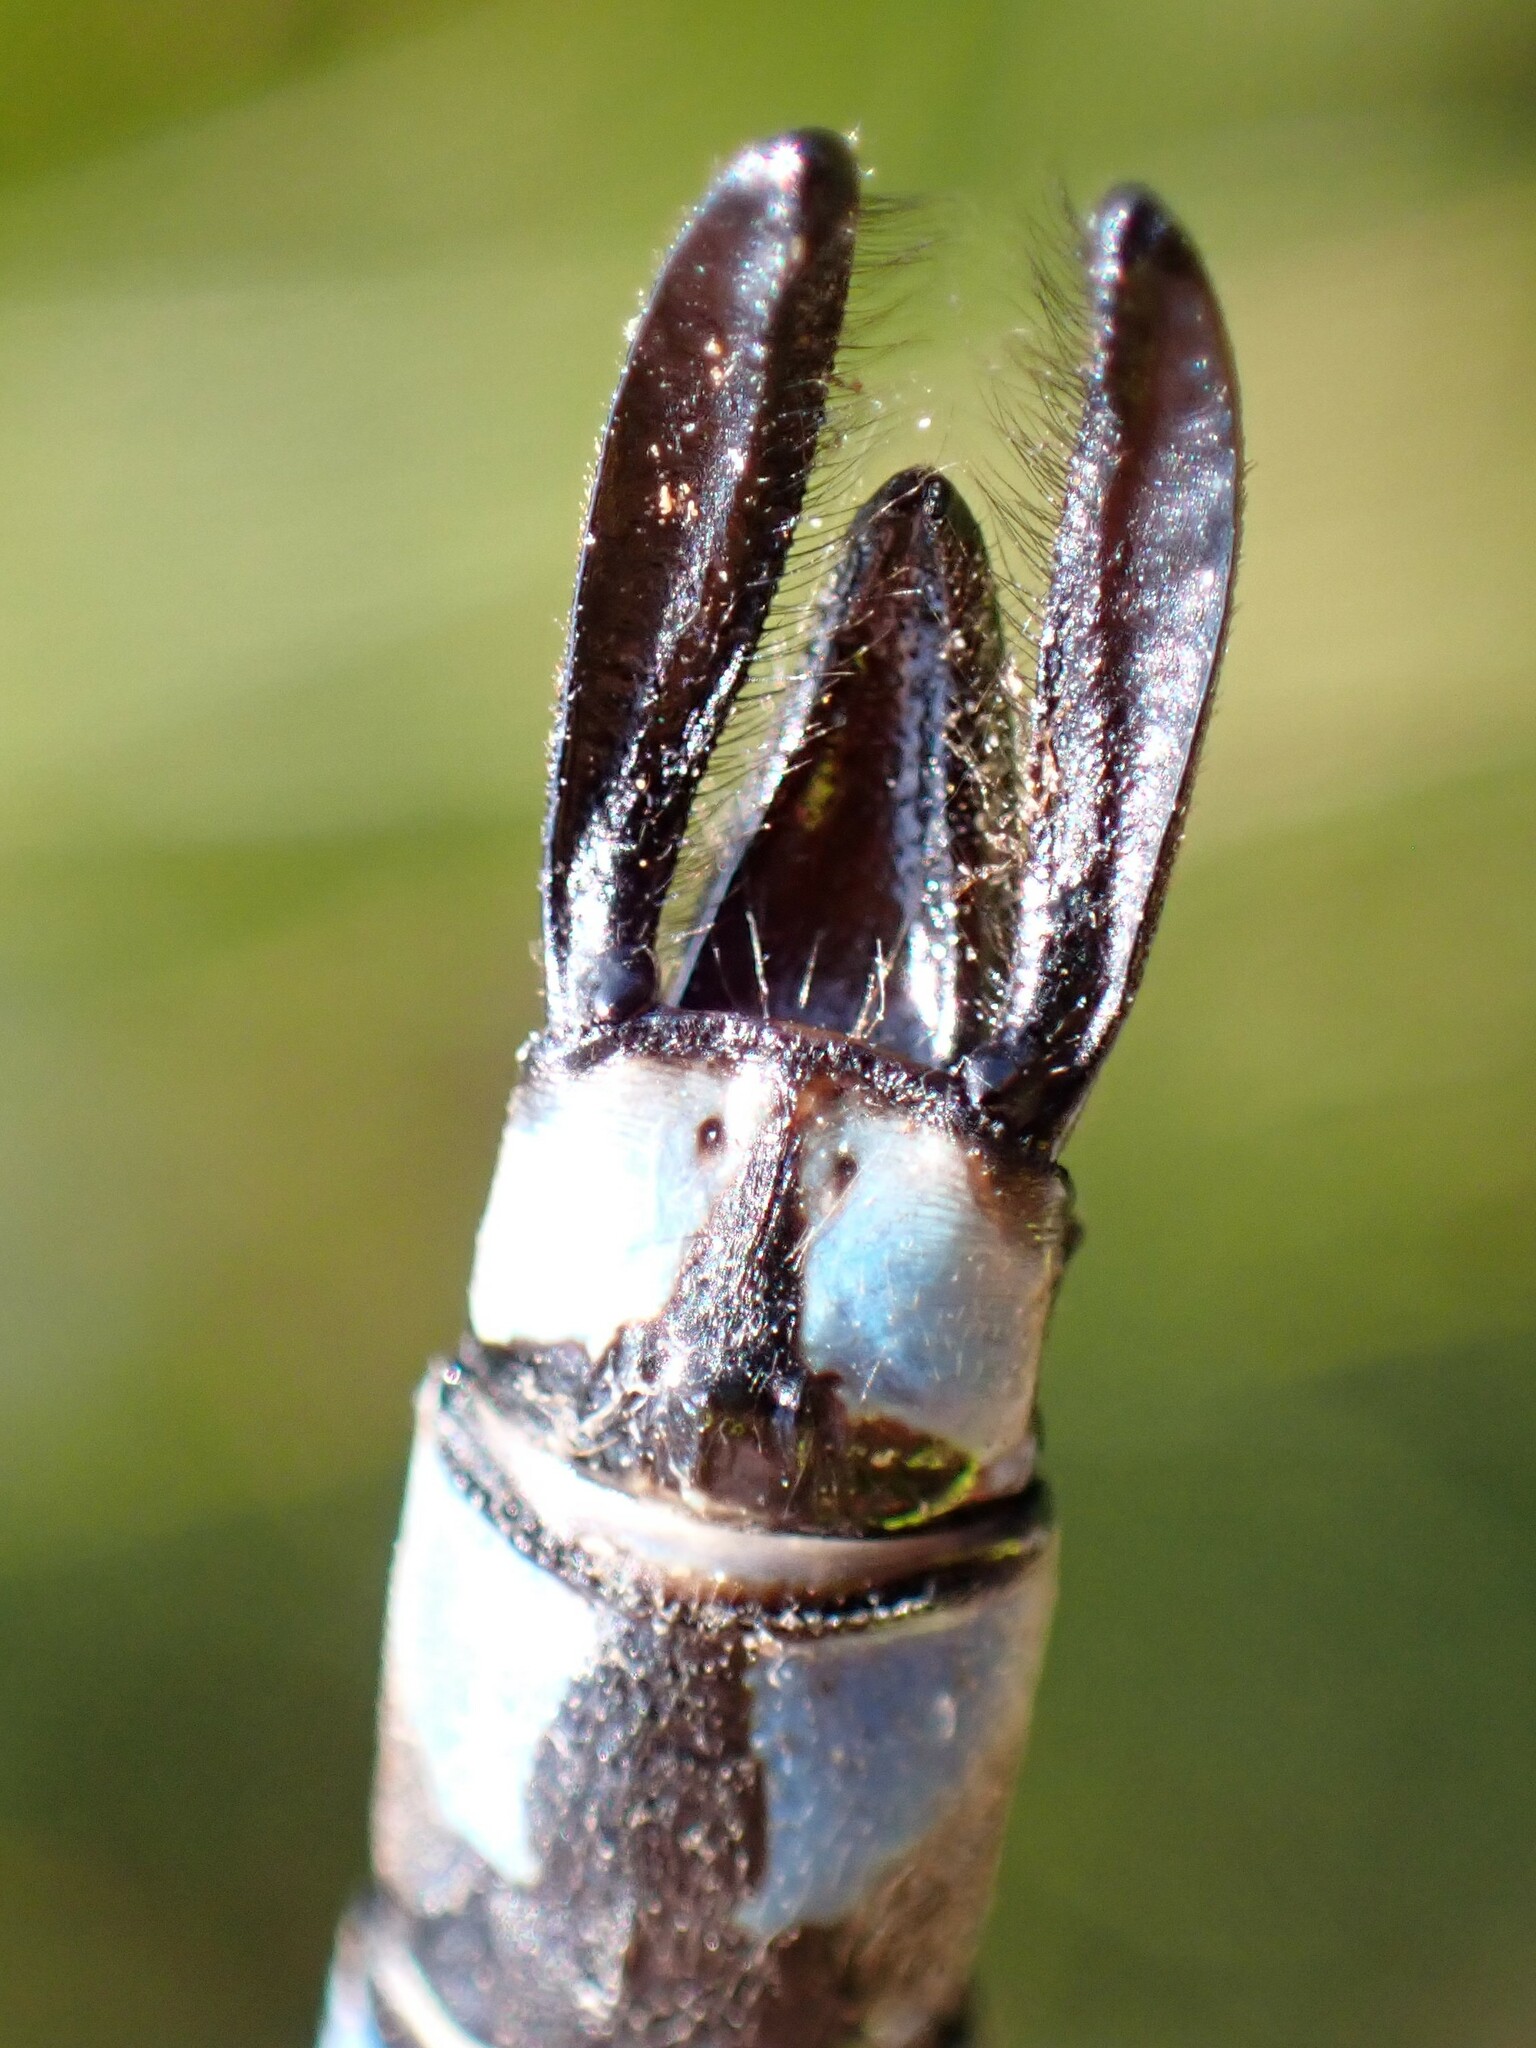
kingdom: Animalia
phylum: Arthropoda
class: Insecta
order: Odonata
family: Aeshnidae
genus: Aeshna
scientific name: Aeshna eremita
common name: Lake darner
